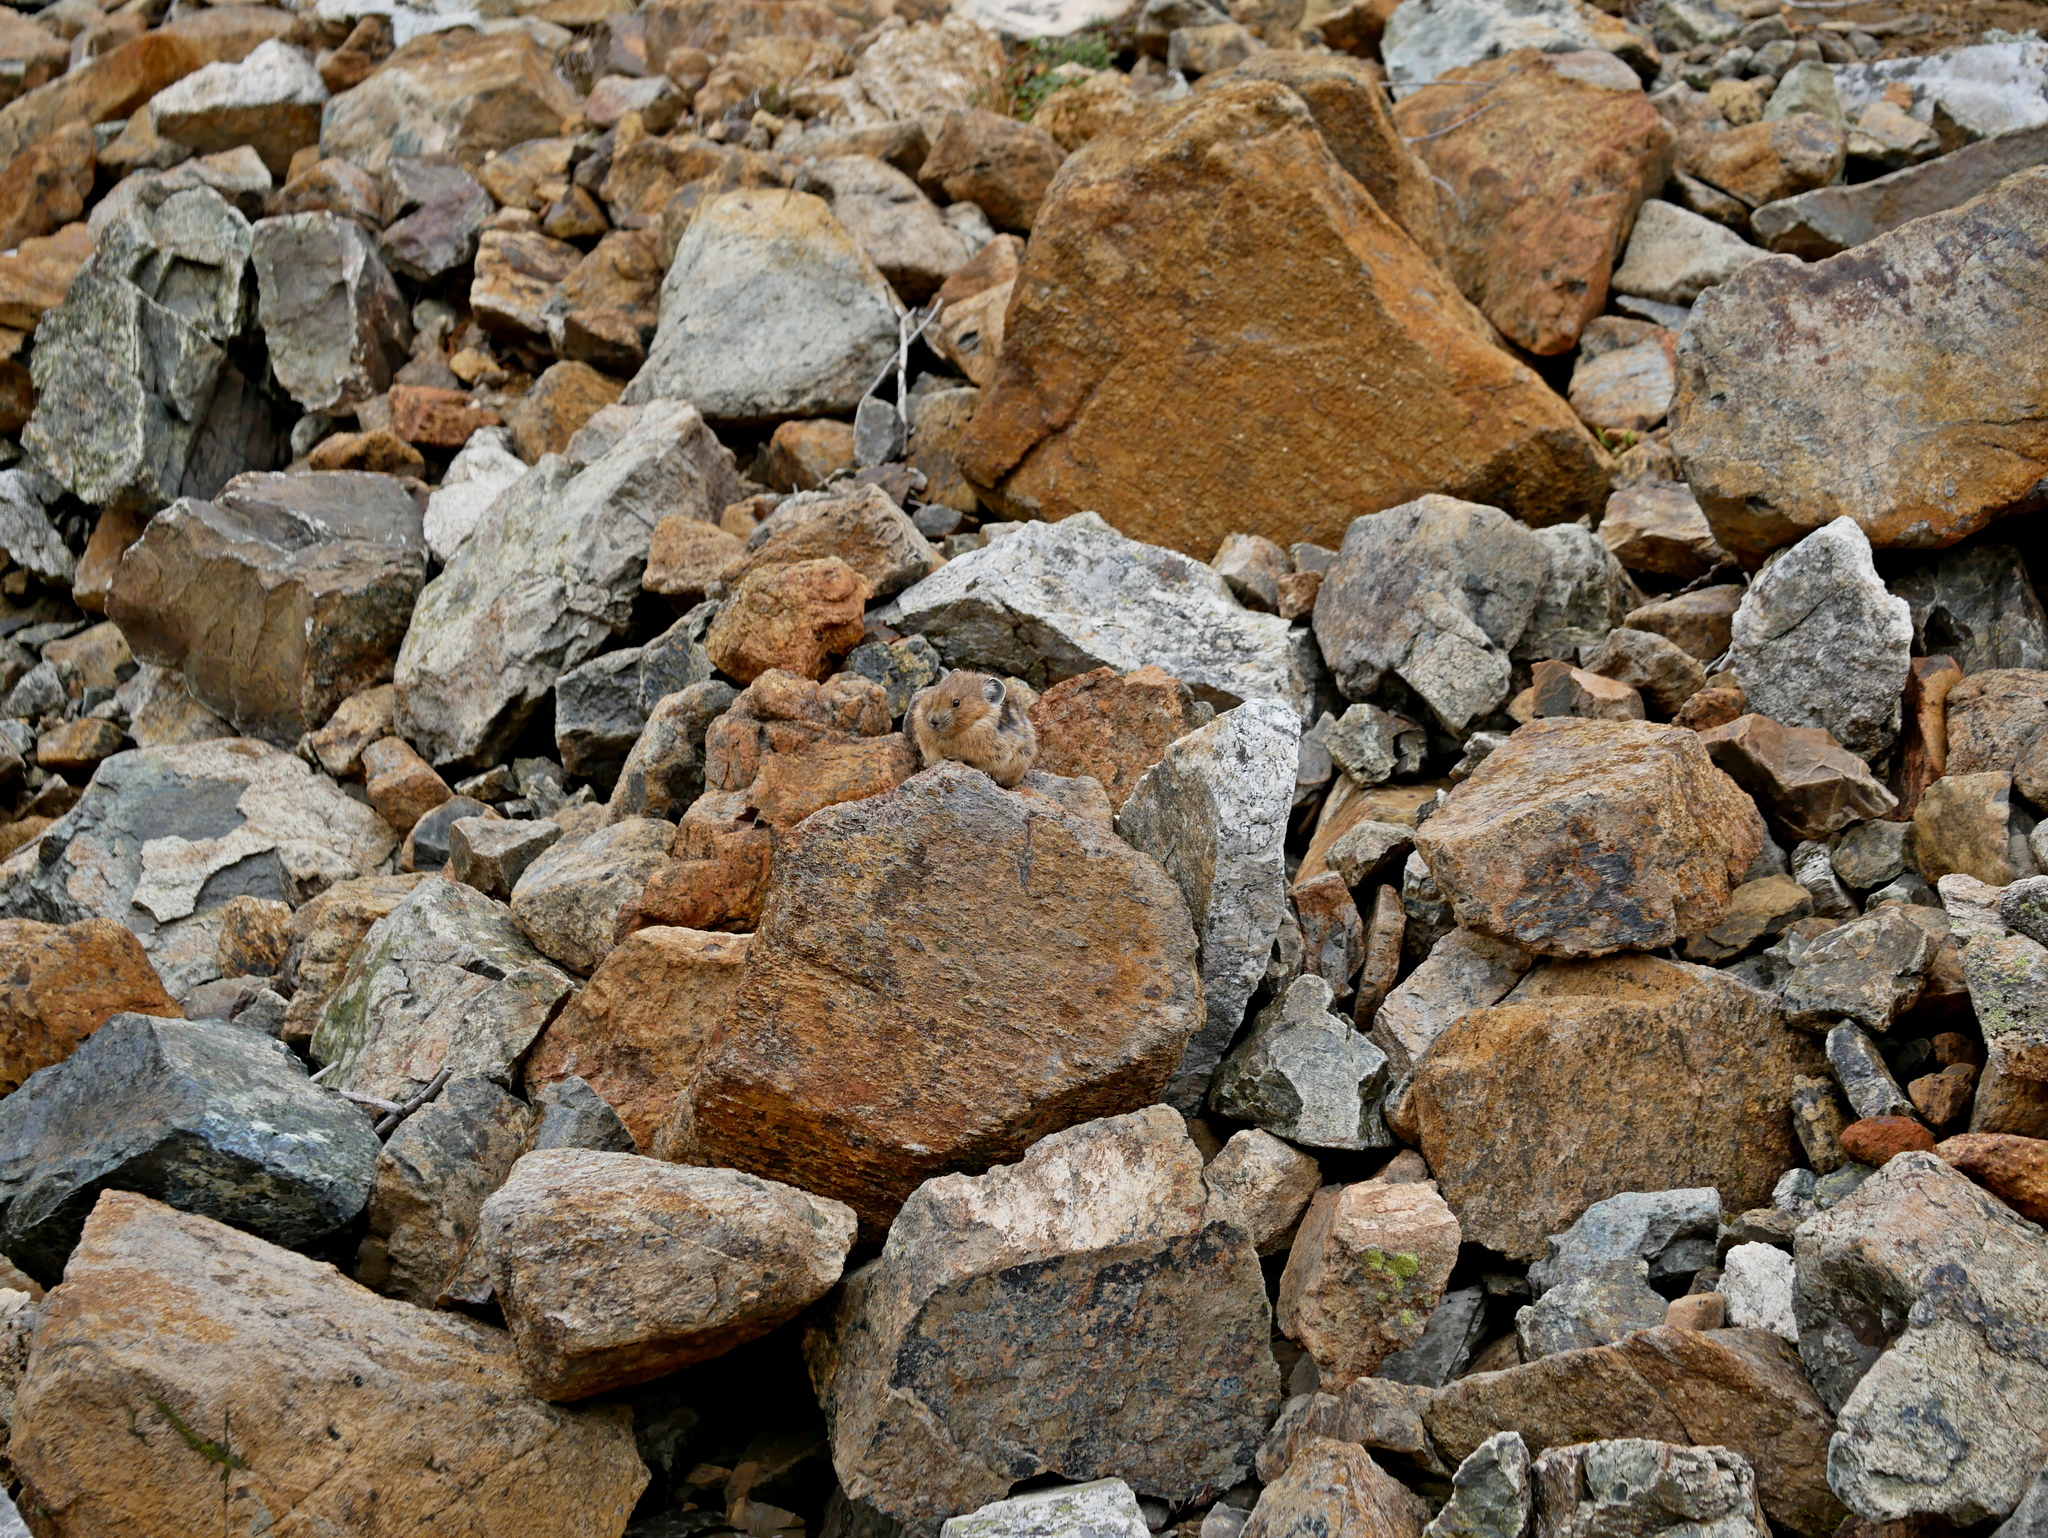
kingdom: Animalia
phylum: Chordata
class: Mammalia
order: Lagomorpha
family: Ochotonidae
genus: Ochotona
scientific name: Ochotona princeps
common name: American pika
